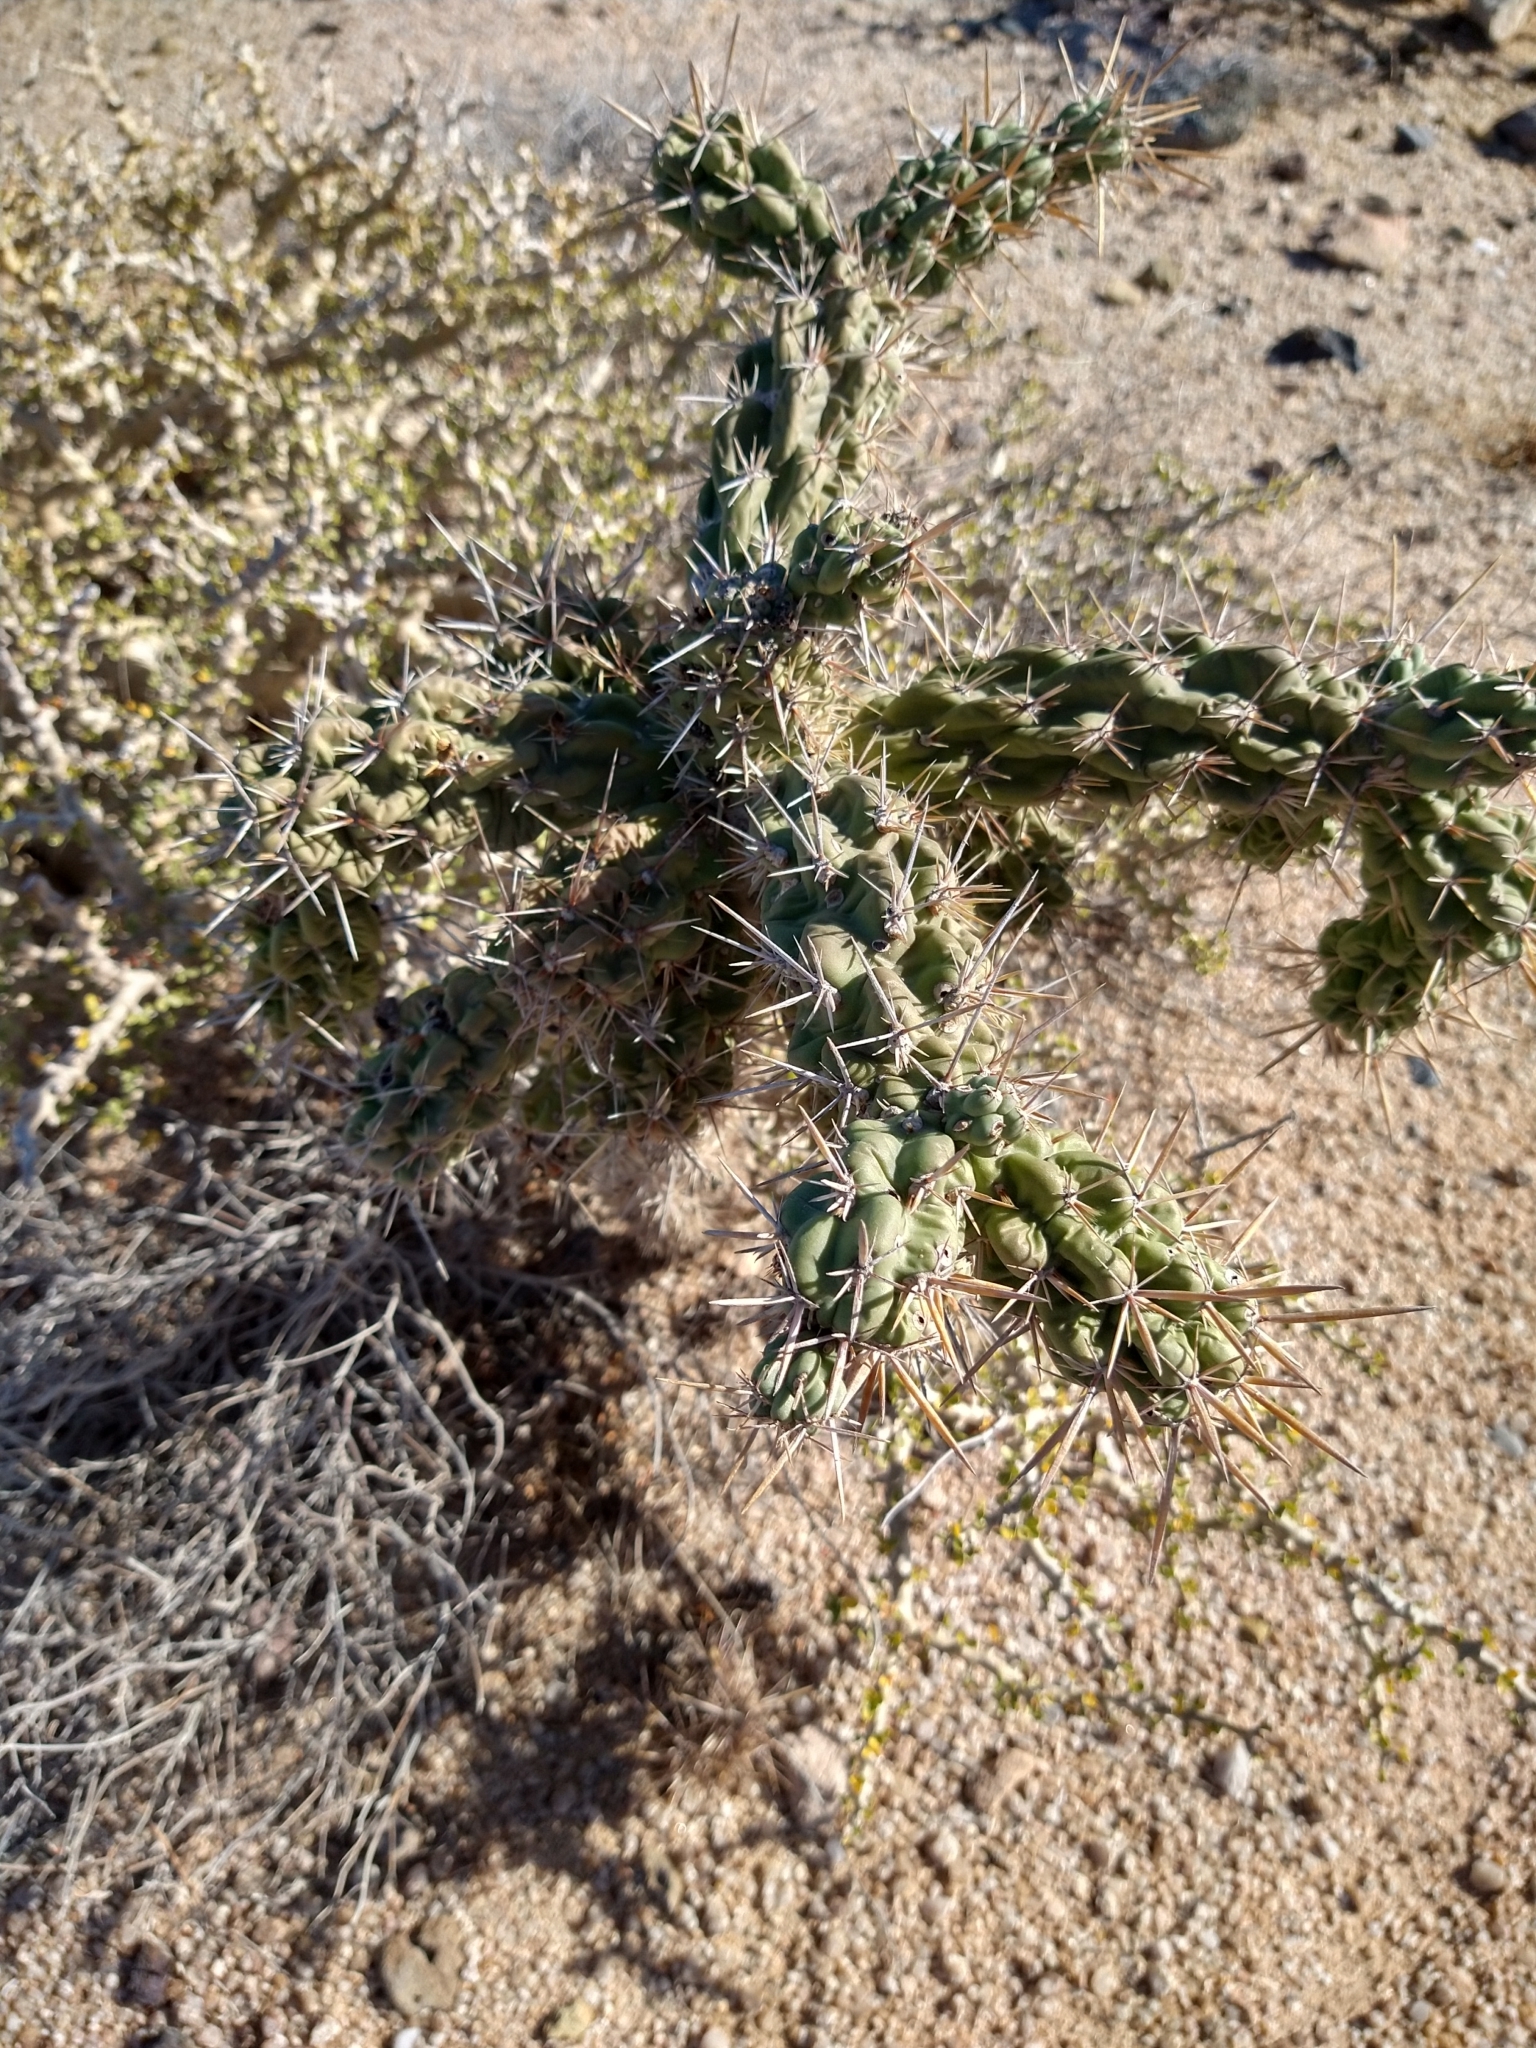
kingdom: Plantae
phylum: Tracheophyta
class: Magnoliopsida
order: Caryophyllales
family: Cactaceae
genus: Cylindropuntia
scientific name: Cylindropuntia cholla
